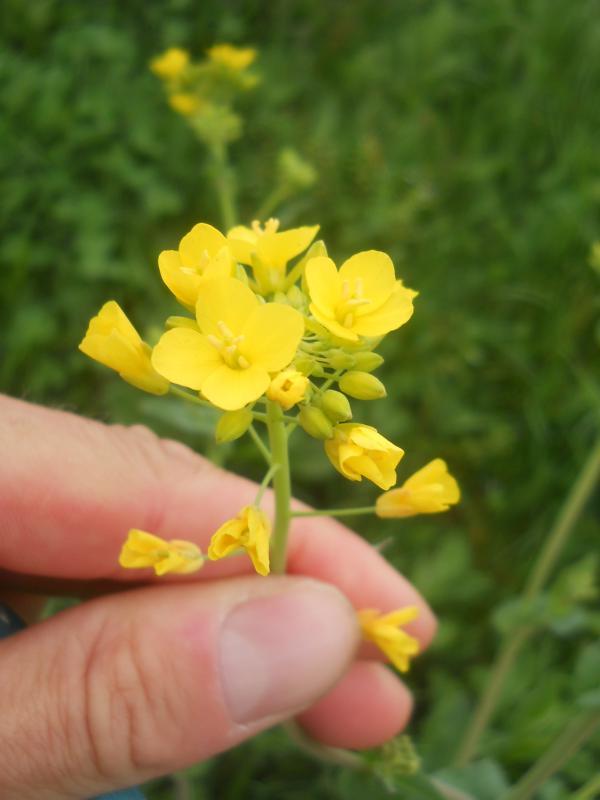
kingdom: Plantae
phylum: Tracheophyta
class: Magnoliopsida
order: Brassicales
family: Brassicaceae
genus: Brassica
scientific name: Brassica rapa
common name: Field mustard
